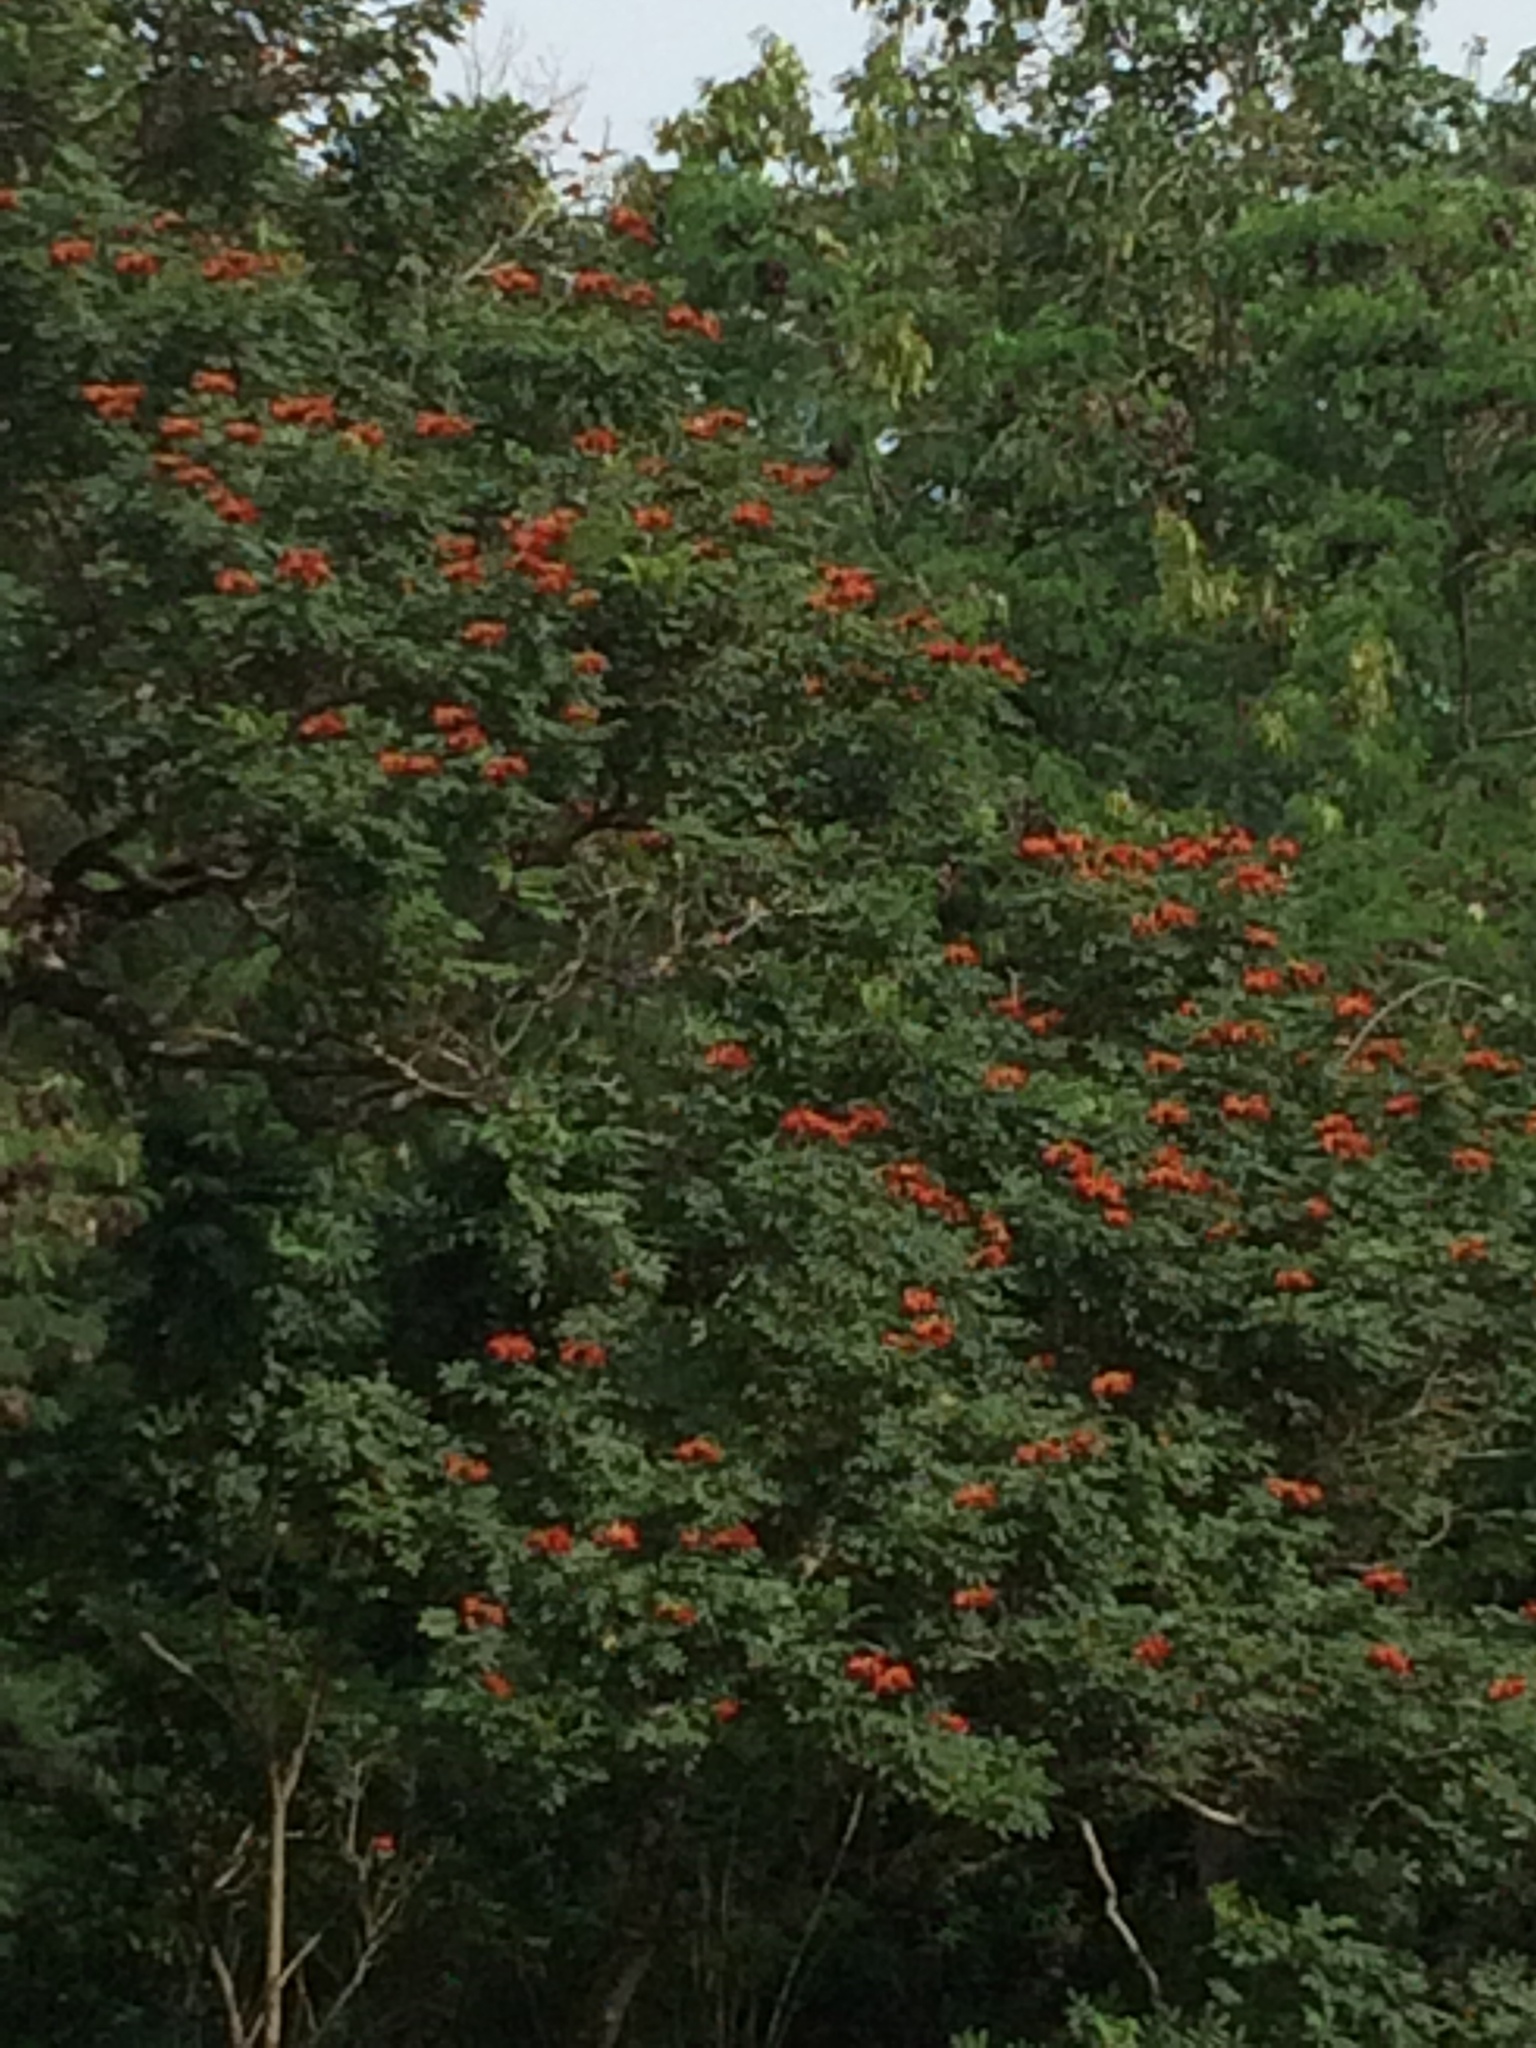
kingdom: Plantae
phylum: Tracheophyta
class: Magnoliopsida
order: Lamiales
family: Bignoniaceae
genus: Spathodea
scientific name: Spathodea campanulata
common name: African tuliptree
